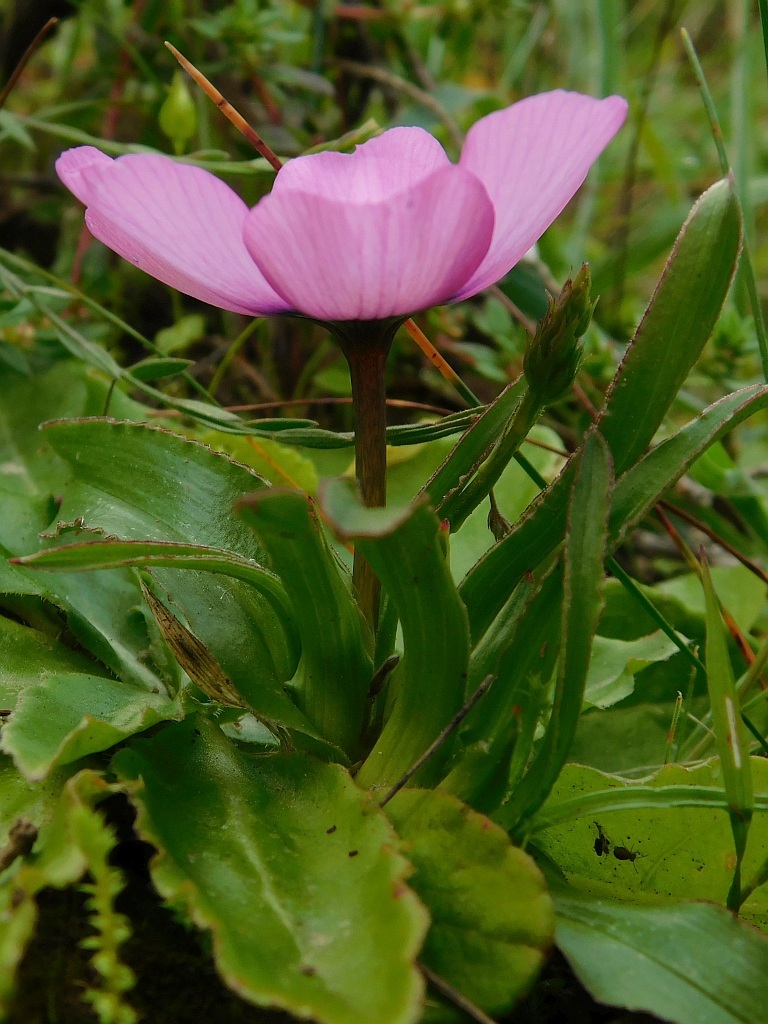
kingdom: Plantae
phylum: Tracheophyta
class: Liliopsida
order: Asparagales
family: Iridaceae
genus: Moraea
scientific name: Moraea barnardiella
